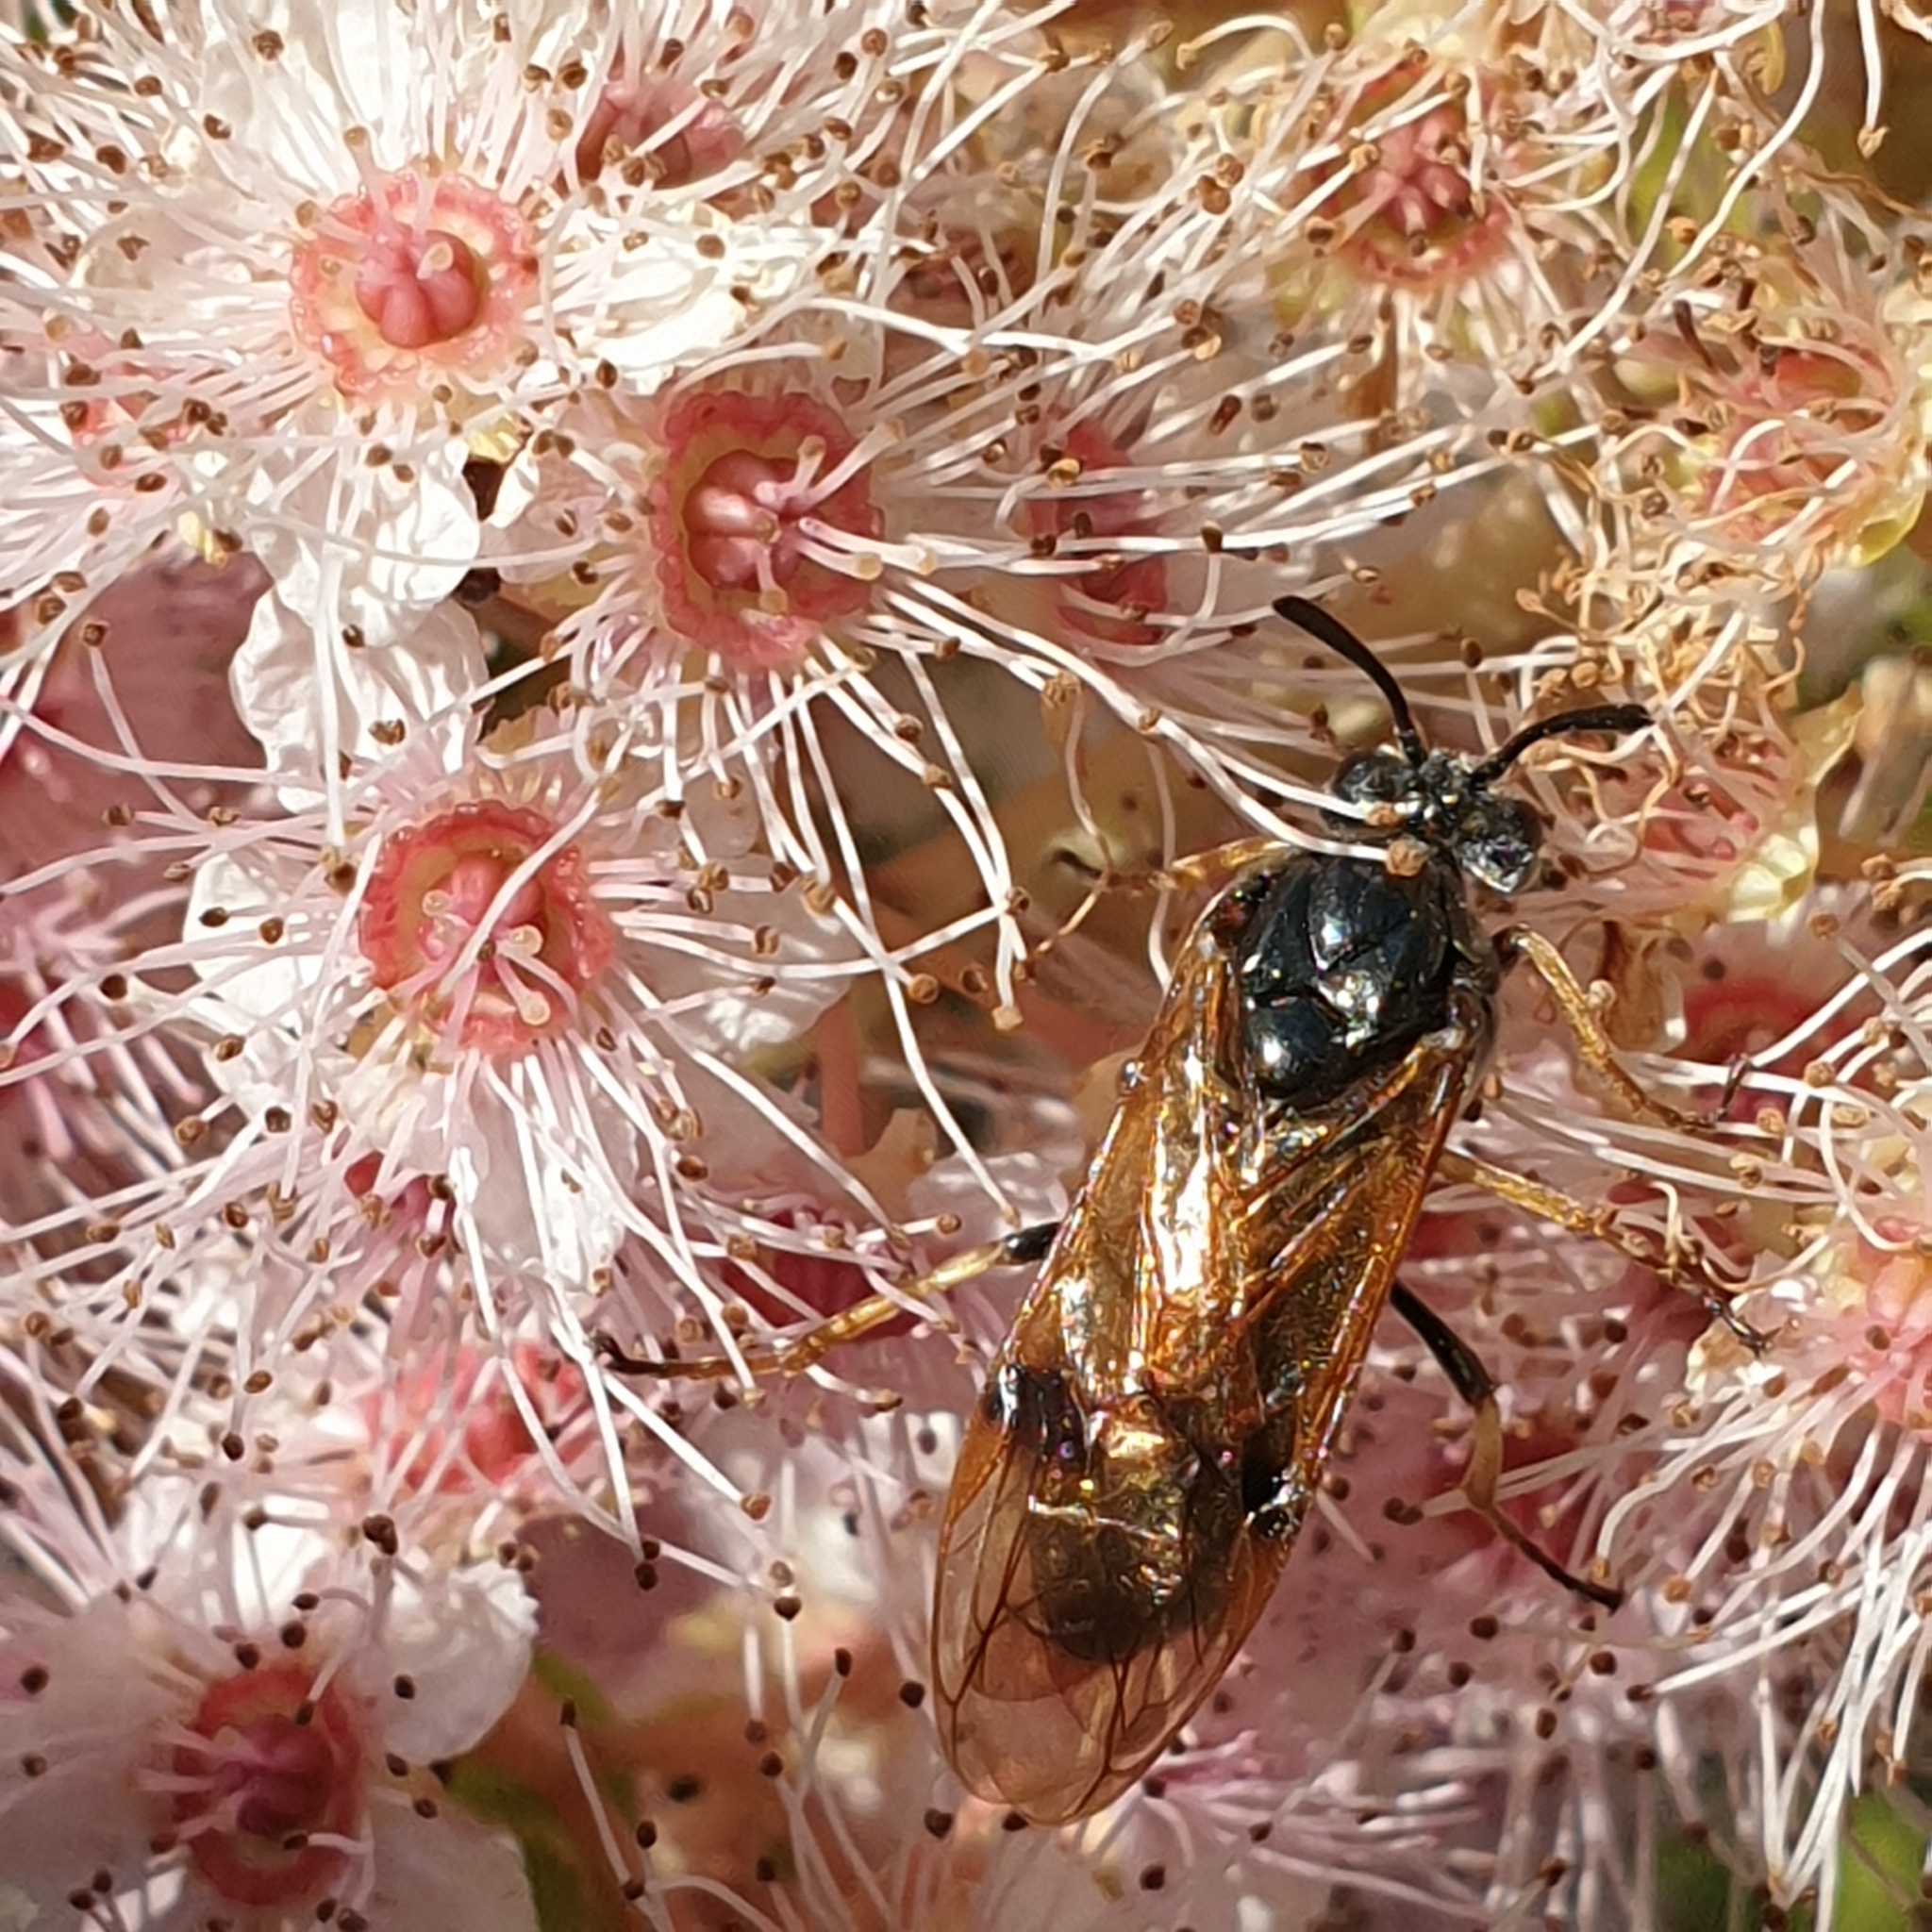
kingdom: Animalia
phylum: Arthropoda
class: Insecta
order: Hymenoptera
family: Argidae
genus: Arge
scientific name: Arge ustulata
